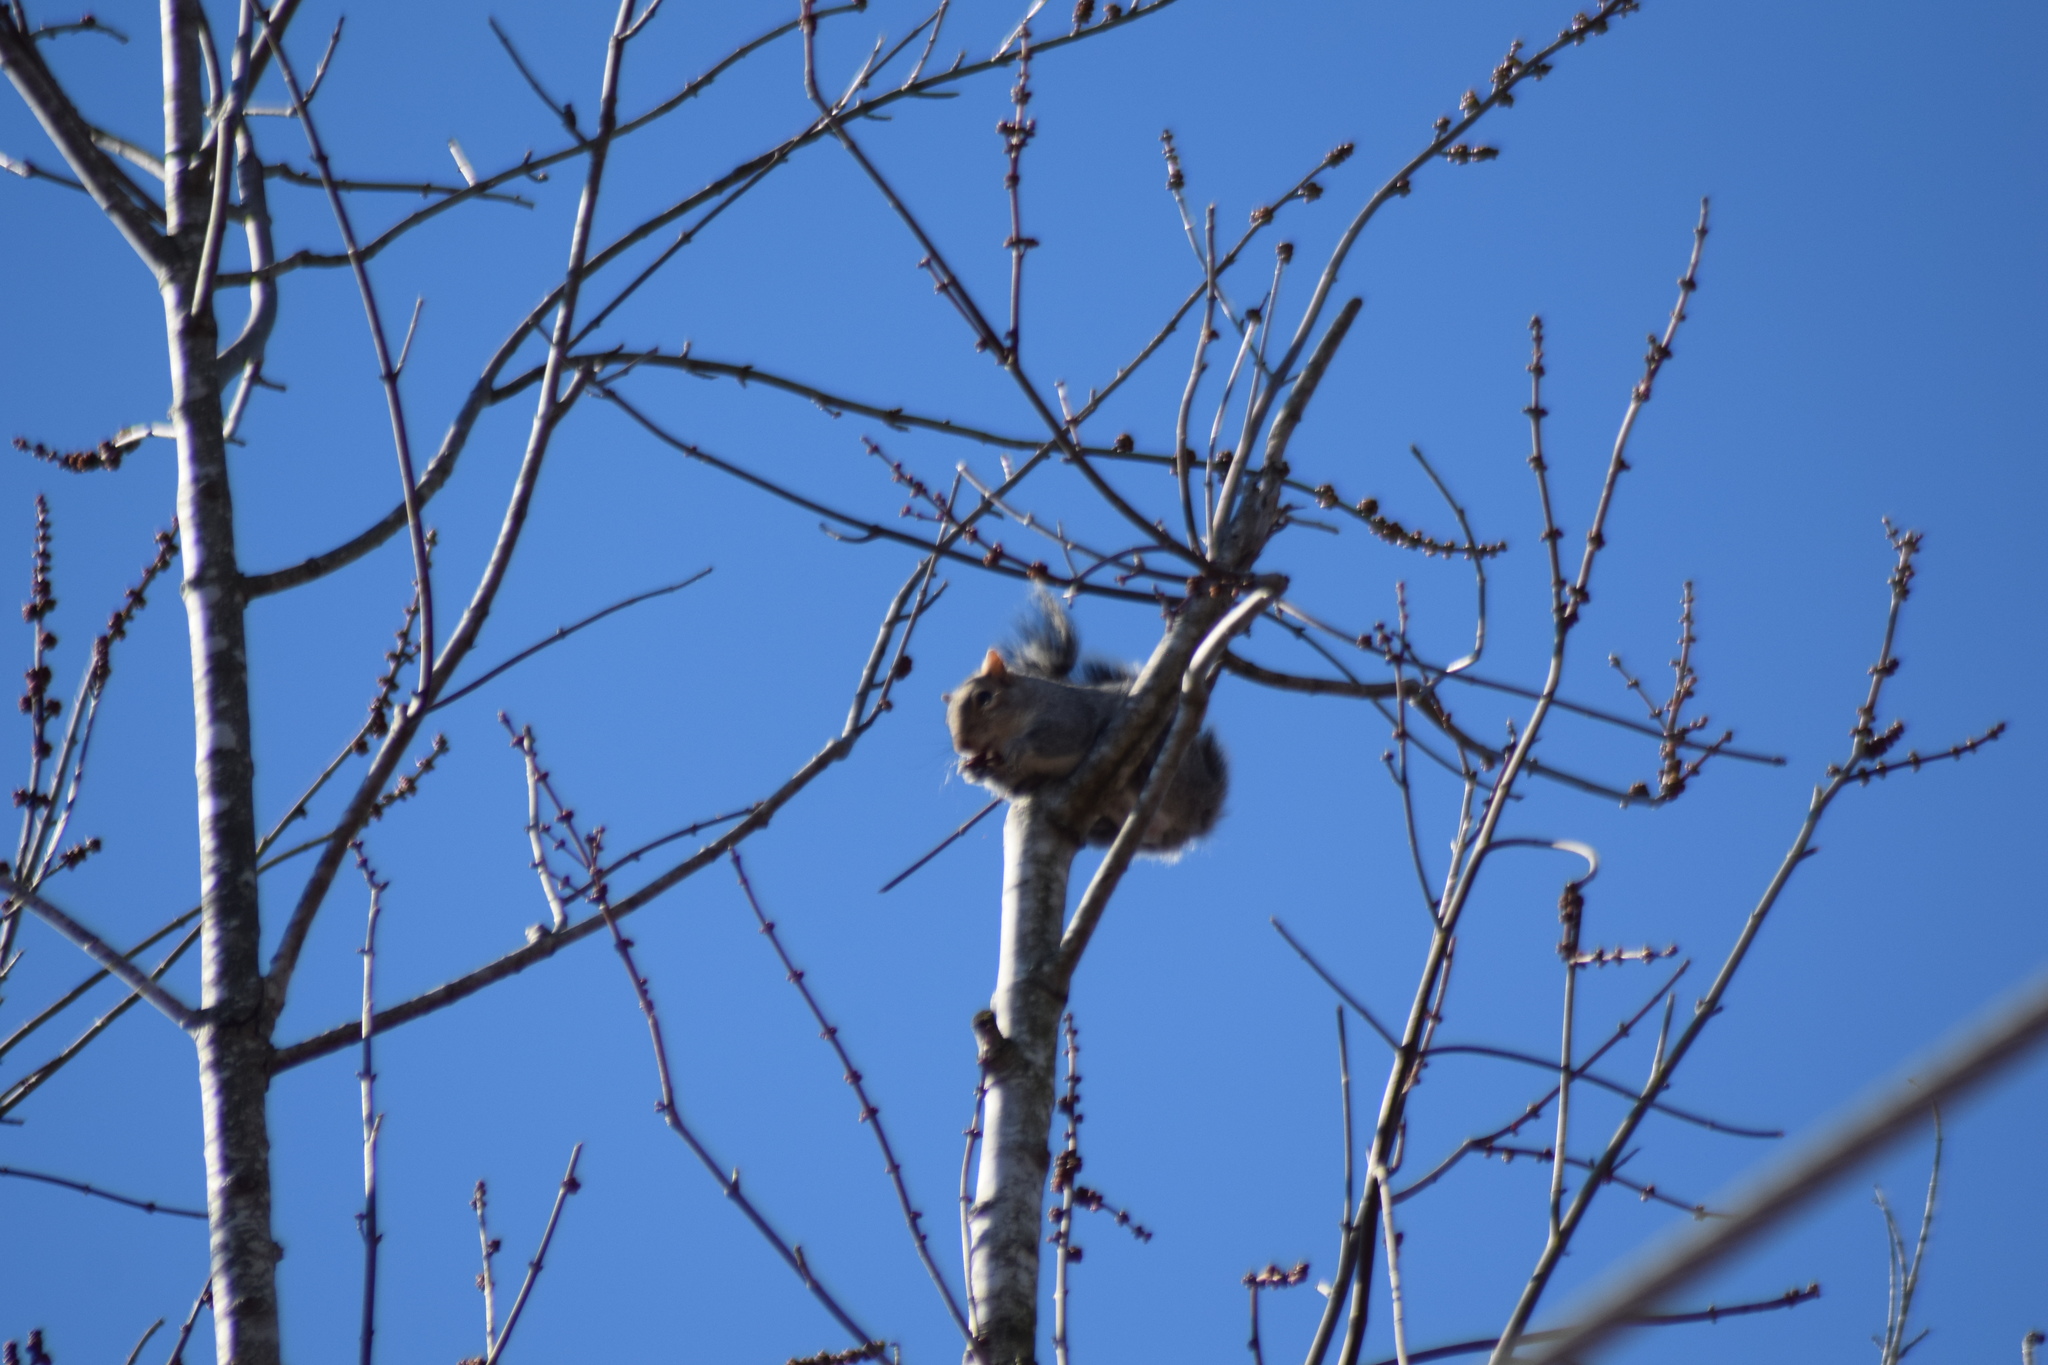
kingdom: Animalia
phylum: Chordata
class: Mammalia
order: Rodentia
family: Sciuridae
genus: Sciurus
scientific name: Sciurus carolinensis
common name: Eastern gray squirrel
